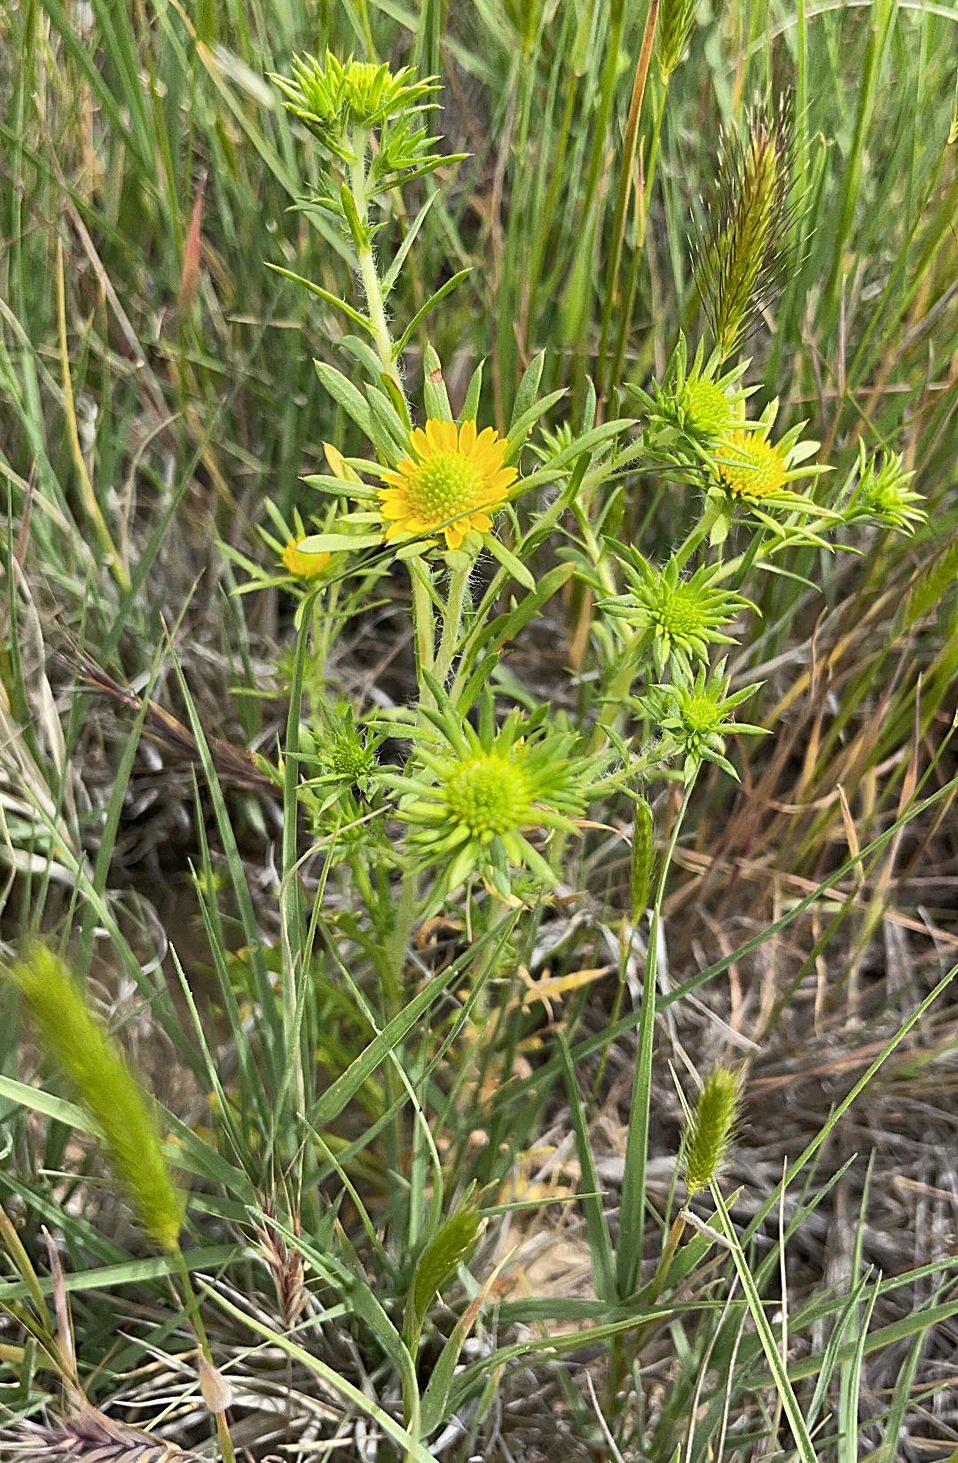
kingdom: Plantae
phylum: Tracheophyta
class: Magnoliopsida
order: Asterales
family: Asteraceae
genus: Centromadia
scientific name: Centromadia pungens
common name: Common spikeweed
